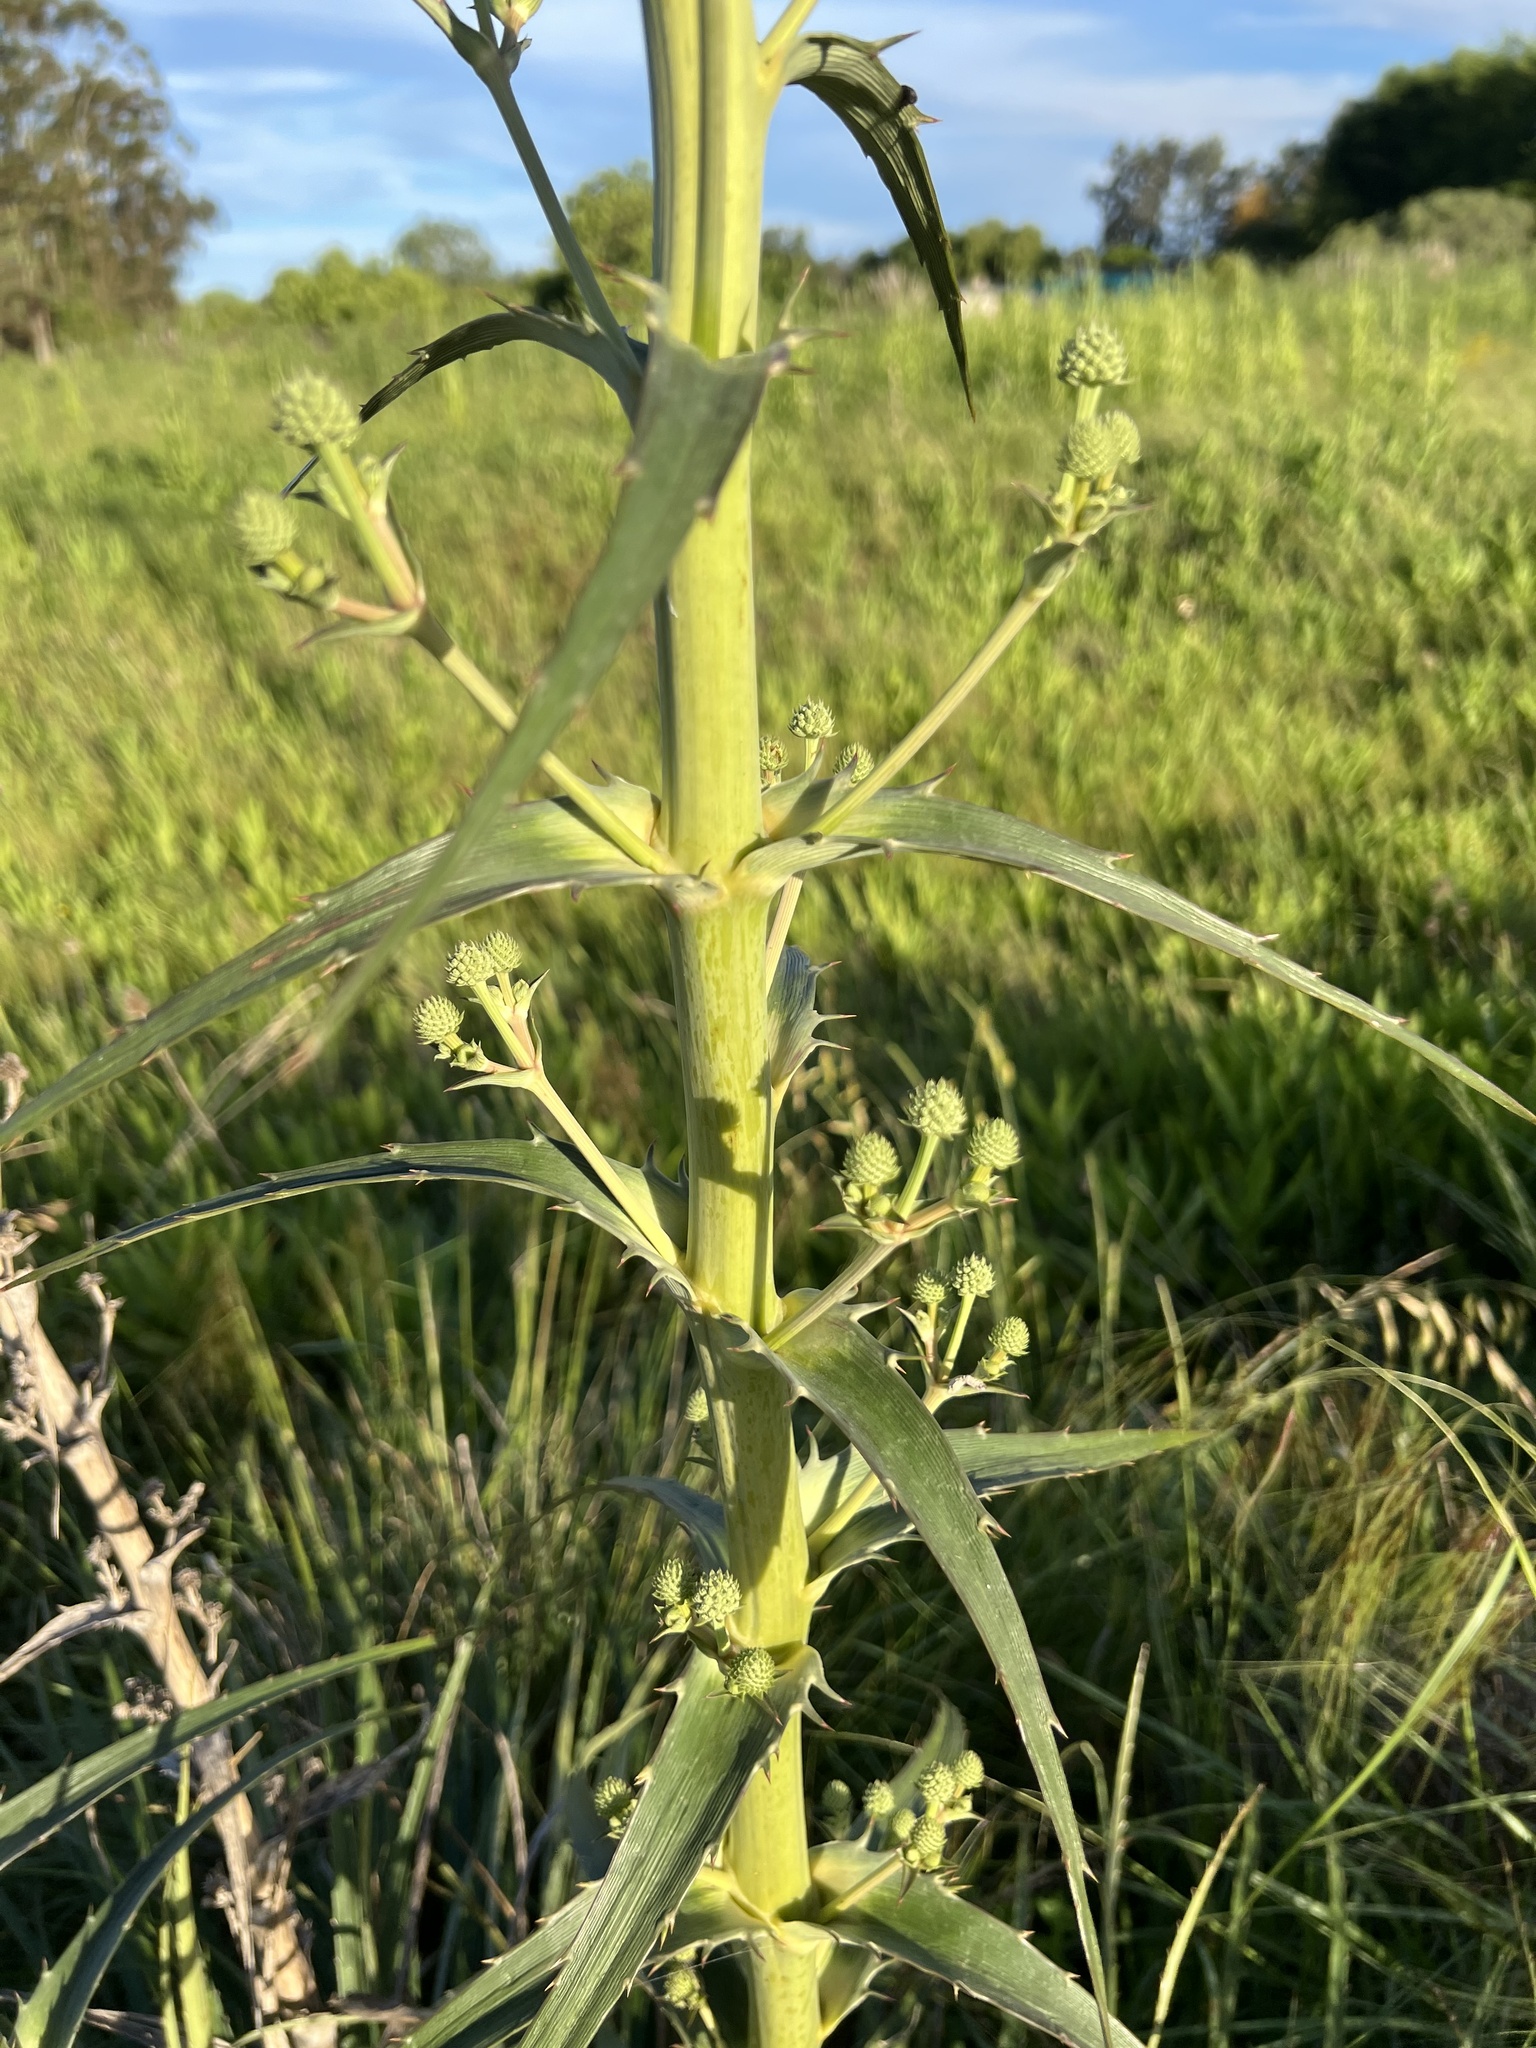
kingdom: Plantae
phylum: Tracheophyta
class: Magnoliopsida
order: Apiales
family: Apiaceae
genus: Eryngium
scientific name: Eryngium horridum
